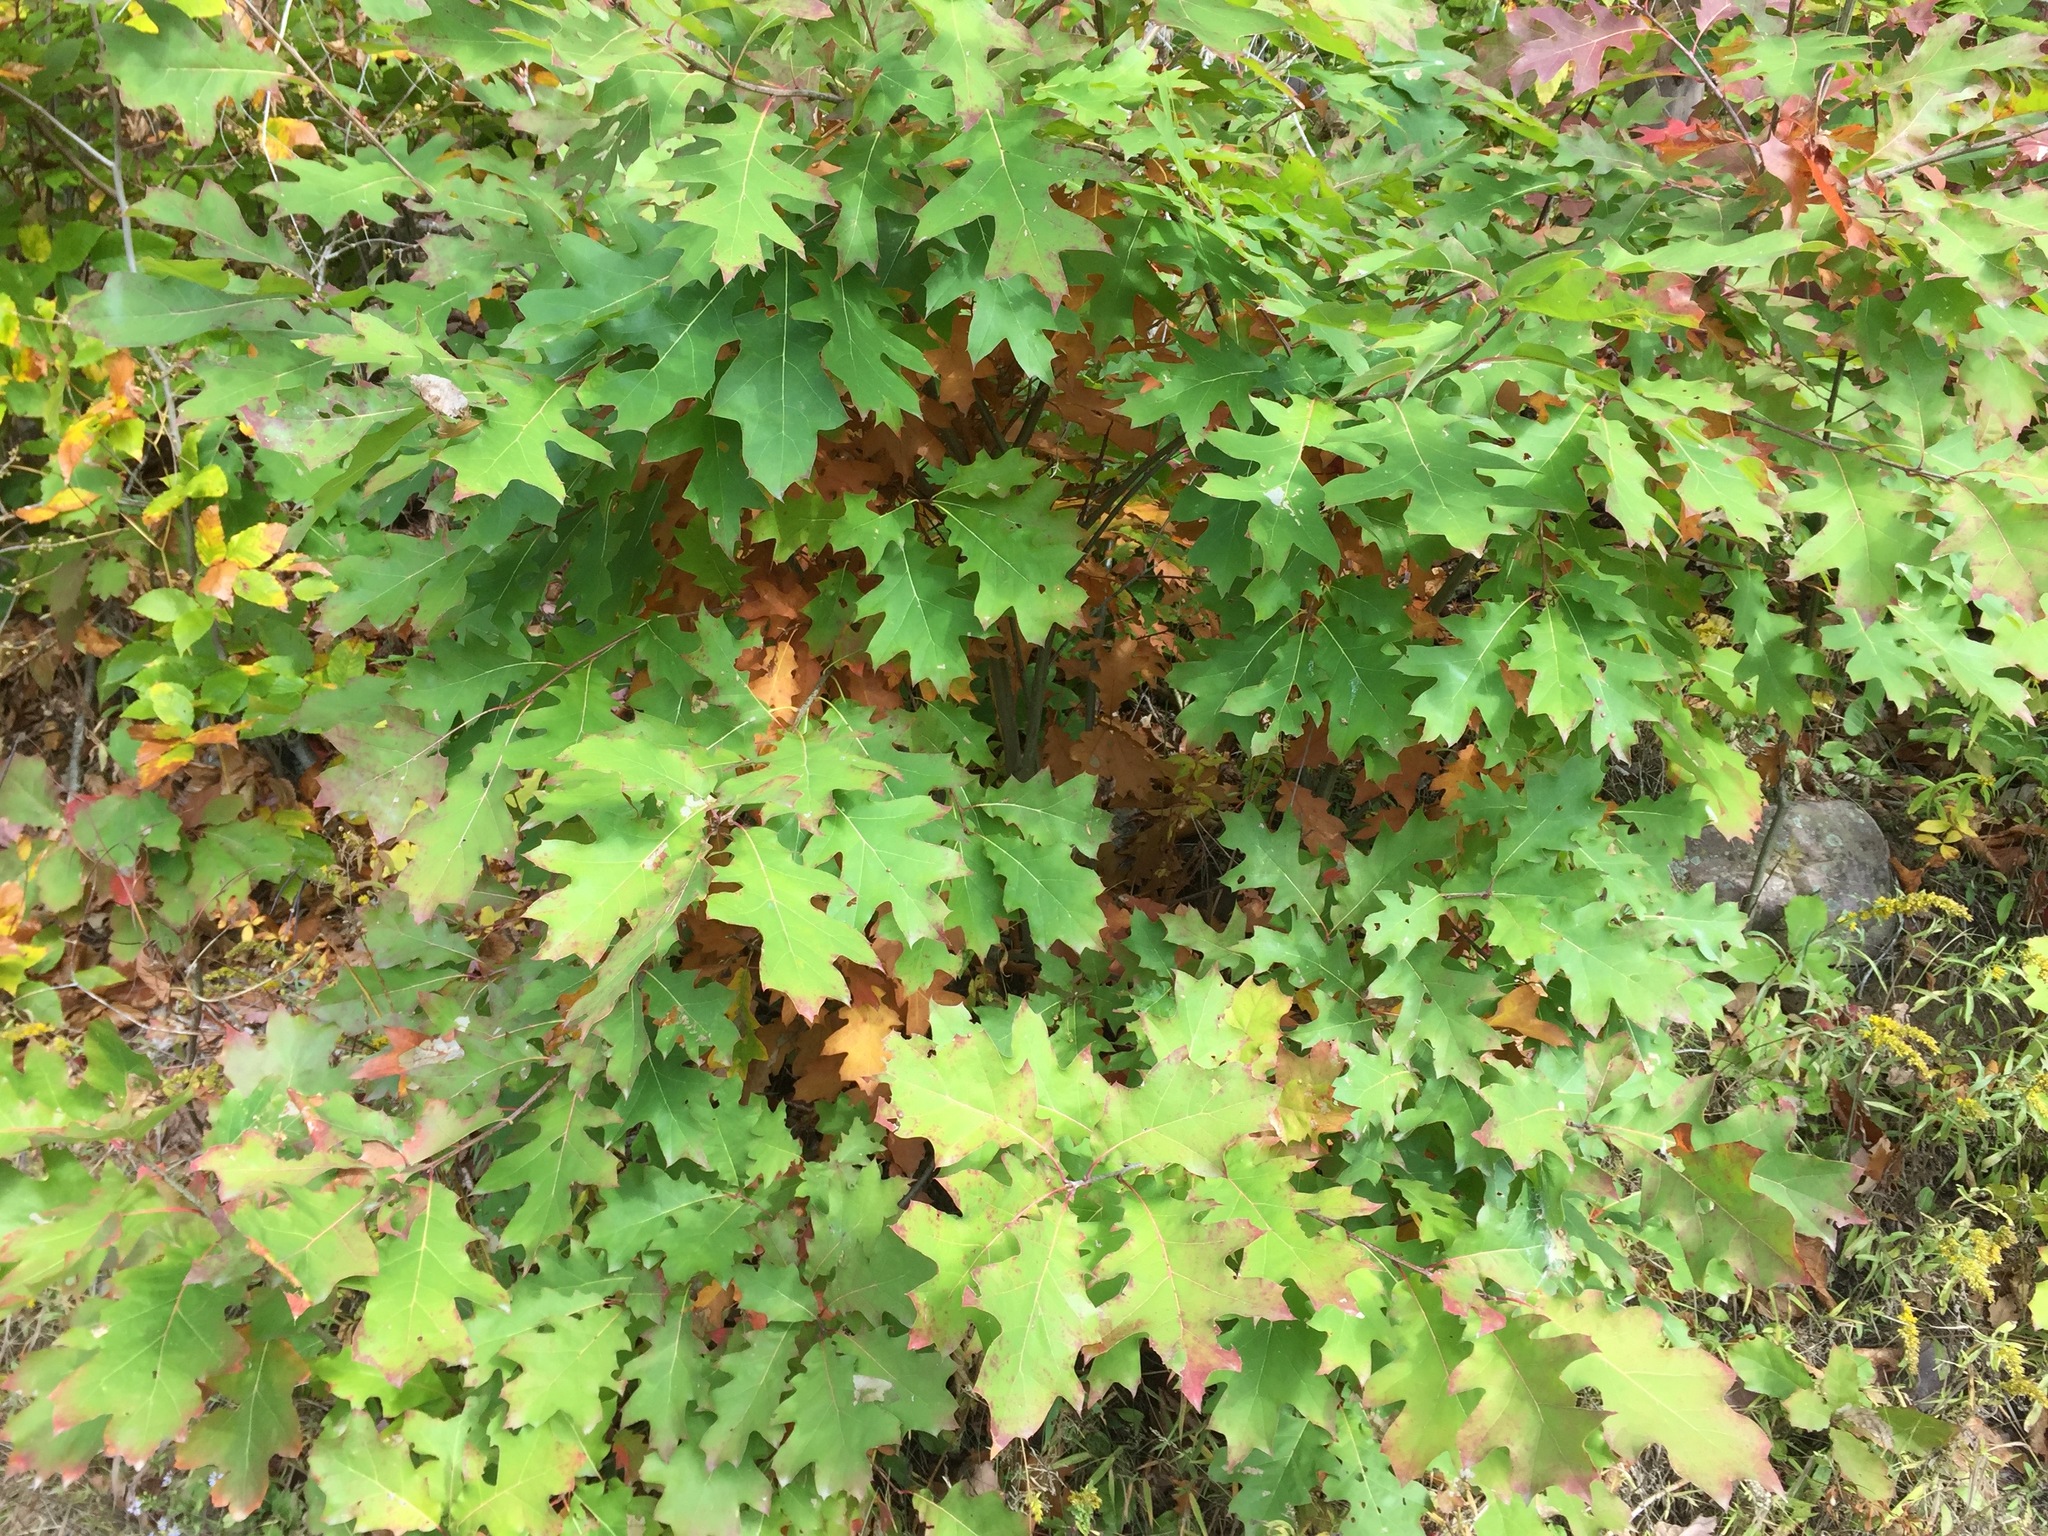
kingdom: Plantae
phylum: Tracheophyta
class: Magnoliopsida
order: Fagales
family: Fagaceae
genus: Quercus
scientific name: Quercus rubra
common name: Red oak
